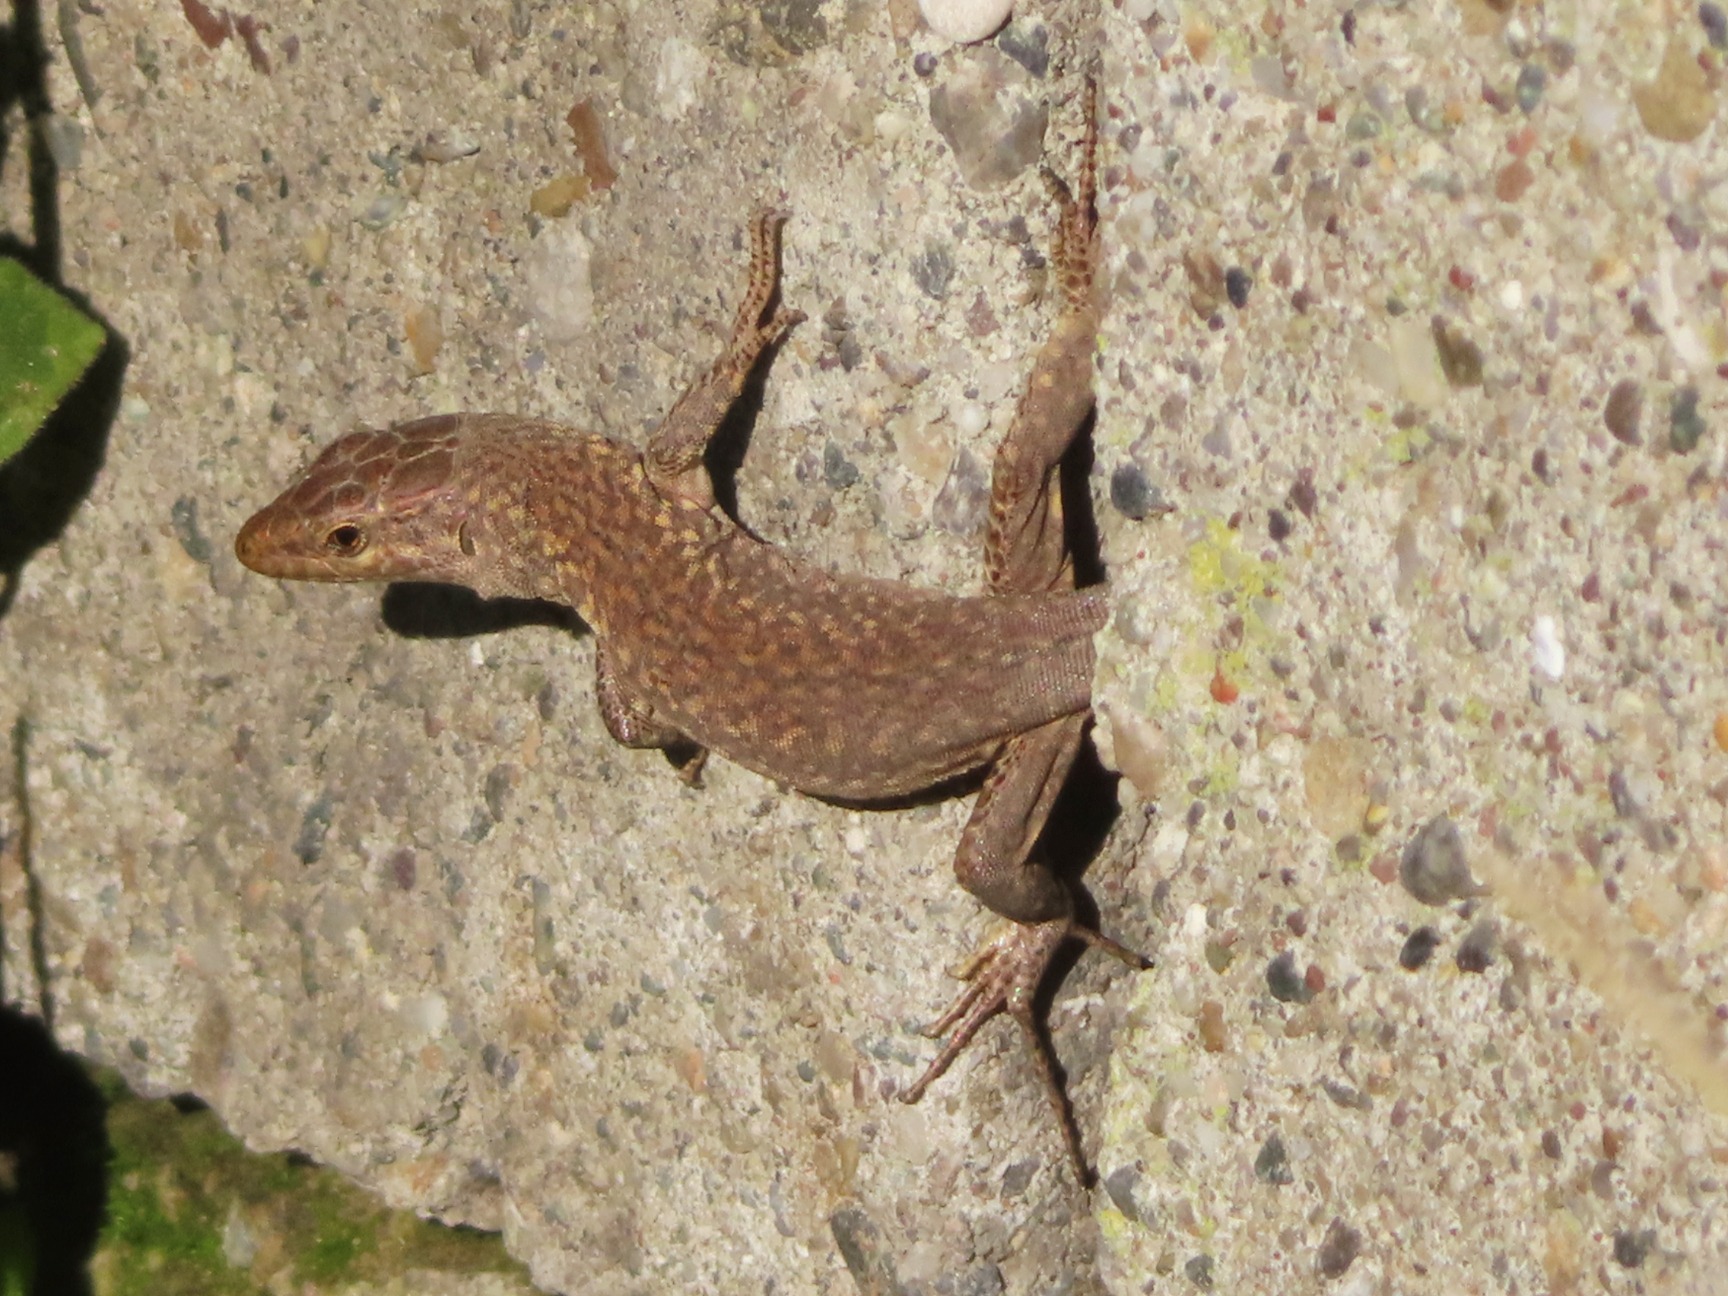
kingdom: Animalia
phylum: Chordata
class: Squamata
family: Lacertidae
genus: Podarcis
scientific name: Podarcis siculus
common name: Italian wall lizard
